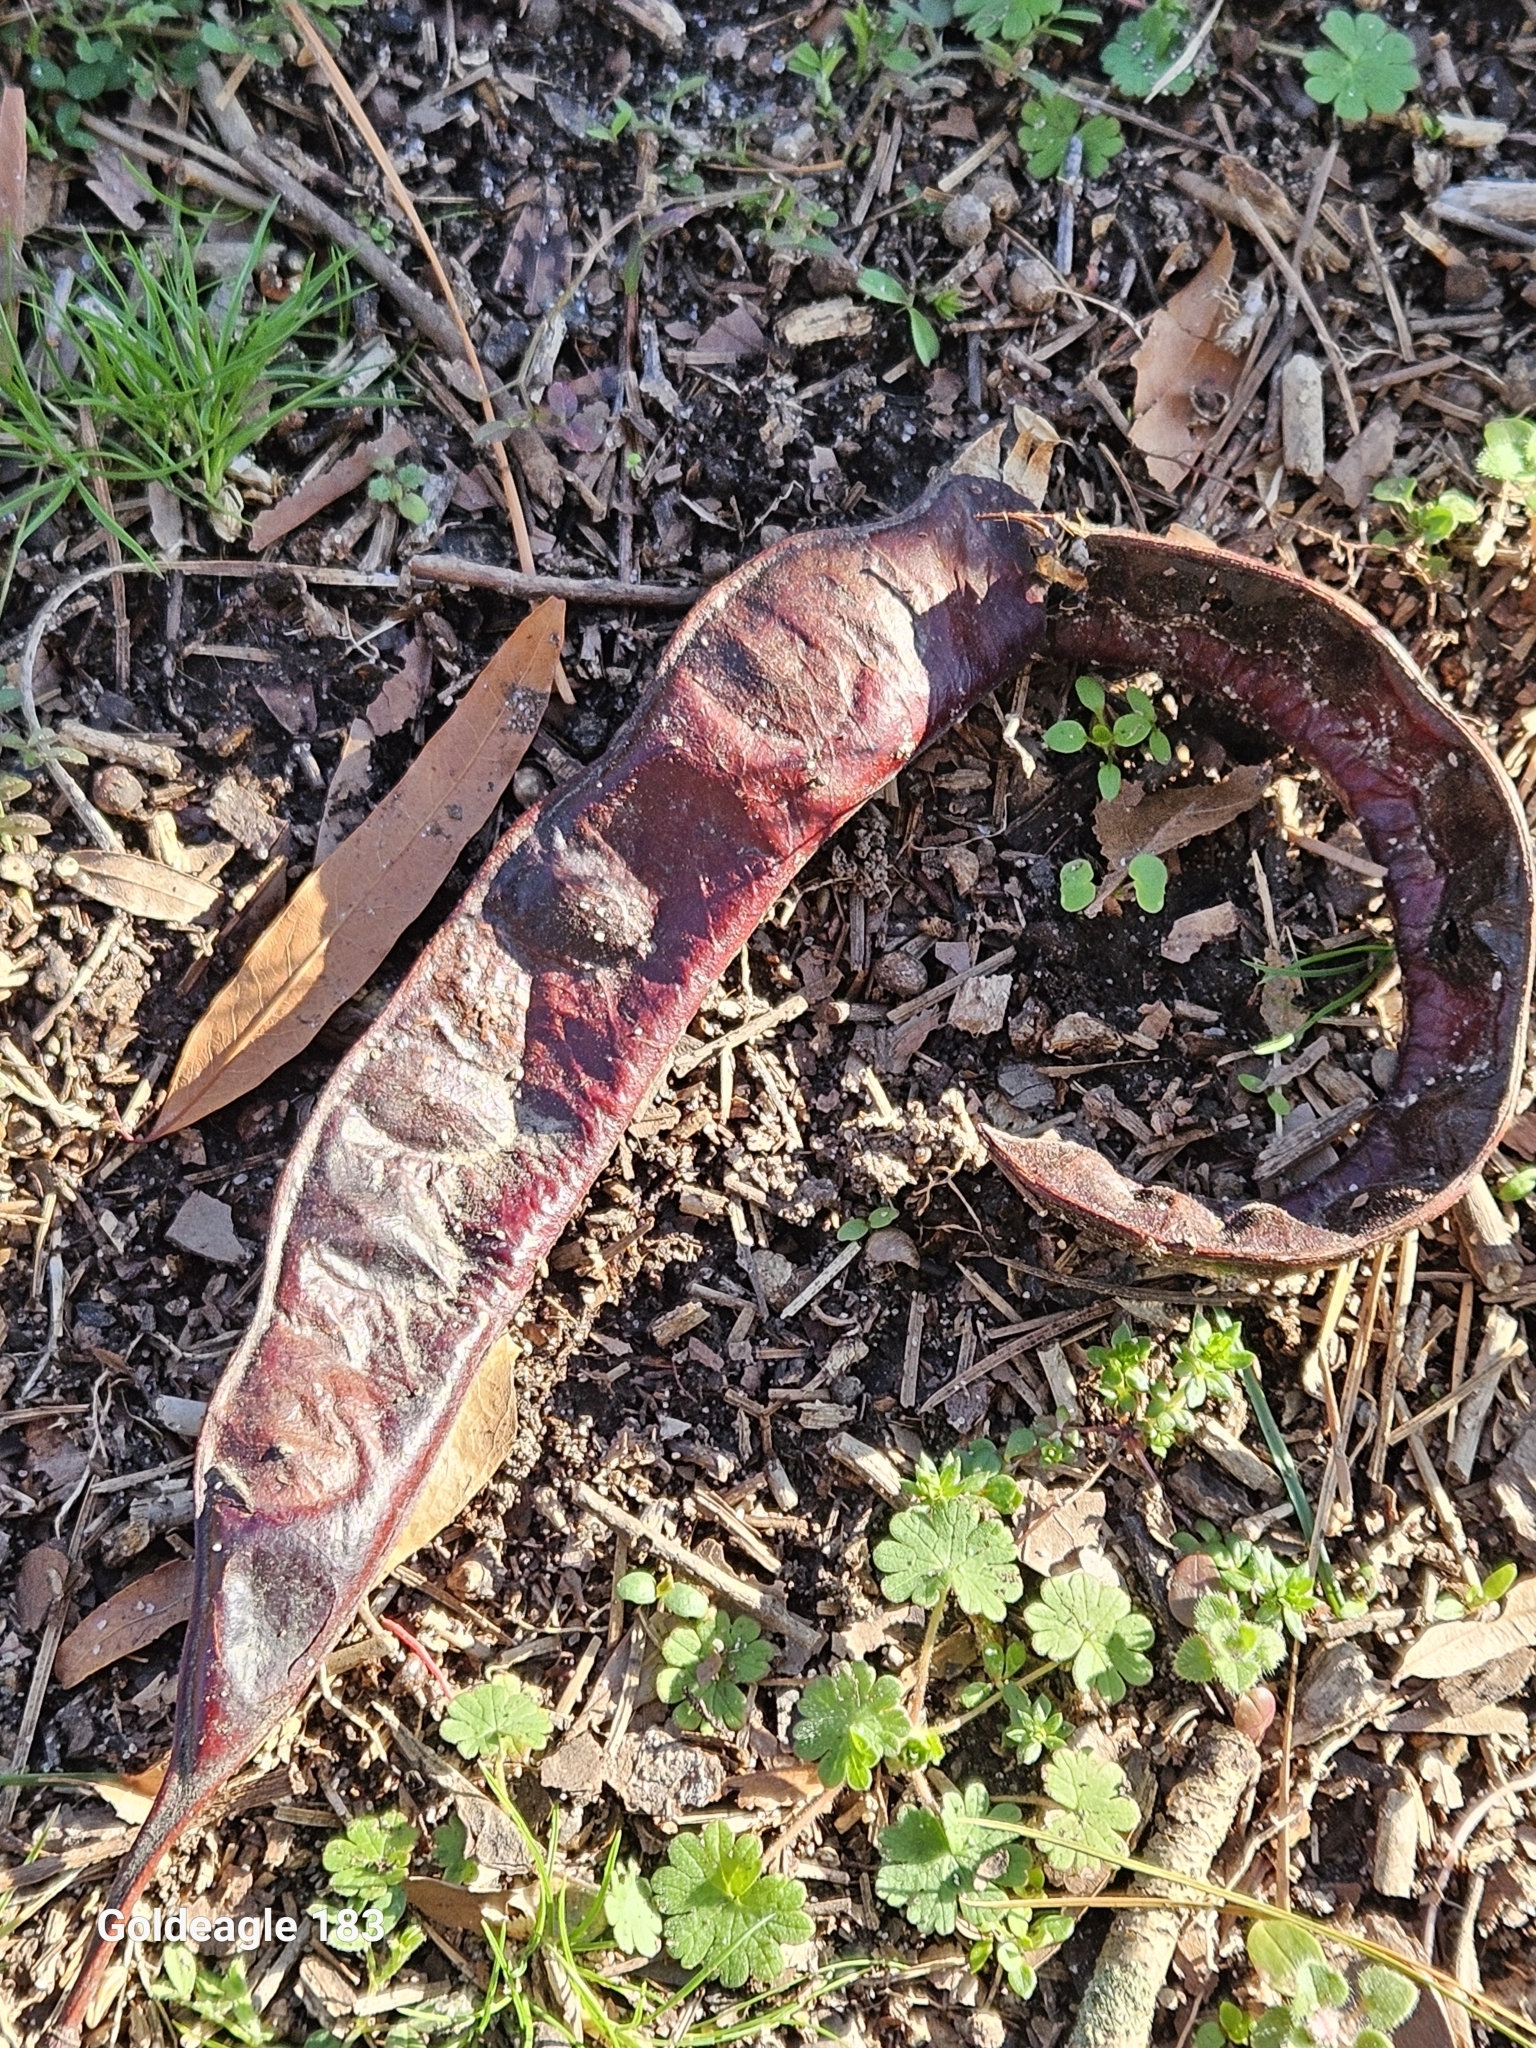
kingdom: Plantae
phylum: Tracheophyta
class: Magnoliopsida
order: Fabales
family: Fabaceae
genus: Gleditsia
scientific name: Gleditsia triacanthos
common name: Common honeylocust
